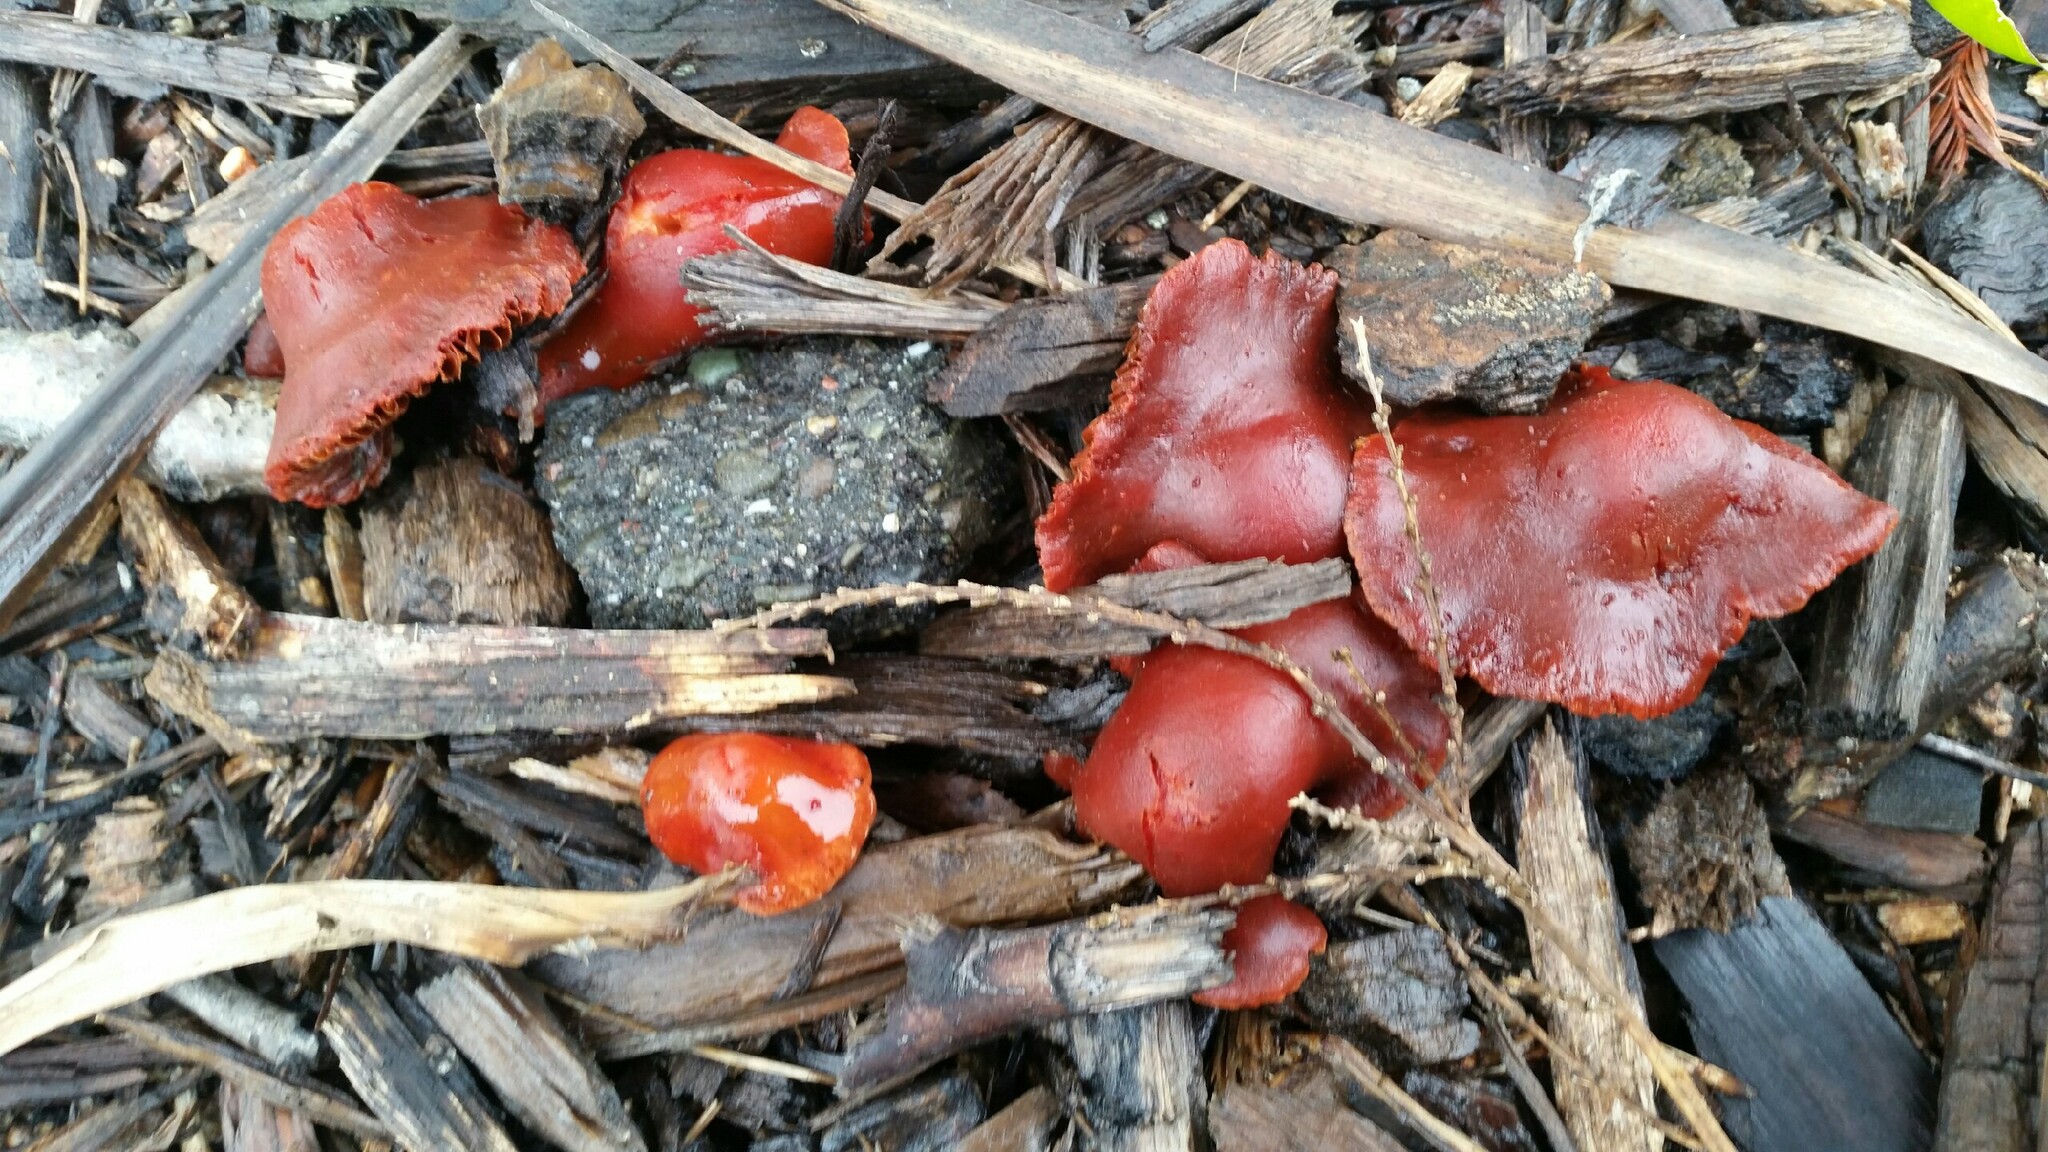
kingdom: Fungi
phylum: Basidiomycota
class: Agaricomycetes
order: Agaricales
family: Strophariaceae
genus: Leratiomyces
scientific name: Leratiomyces ceres
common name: Redlead roundhead
